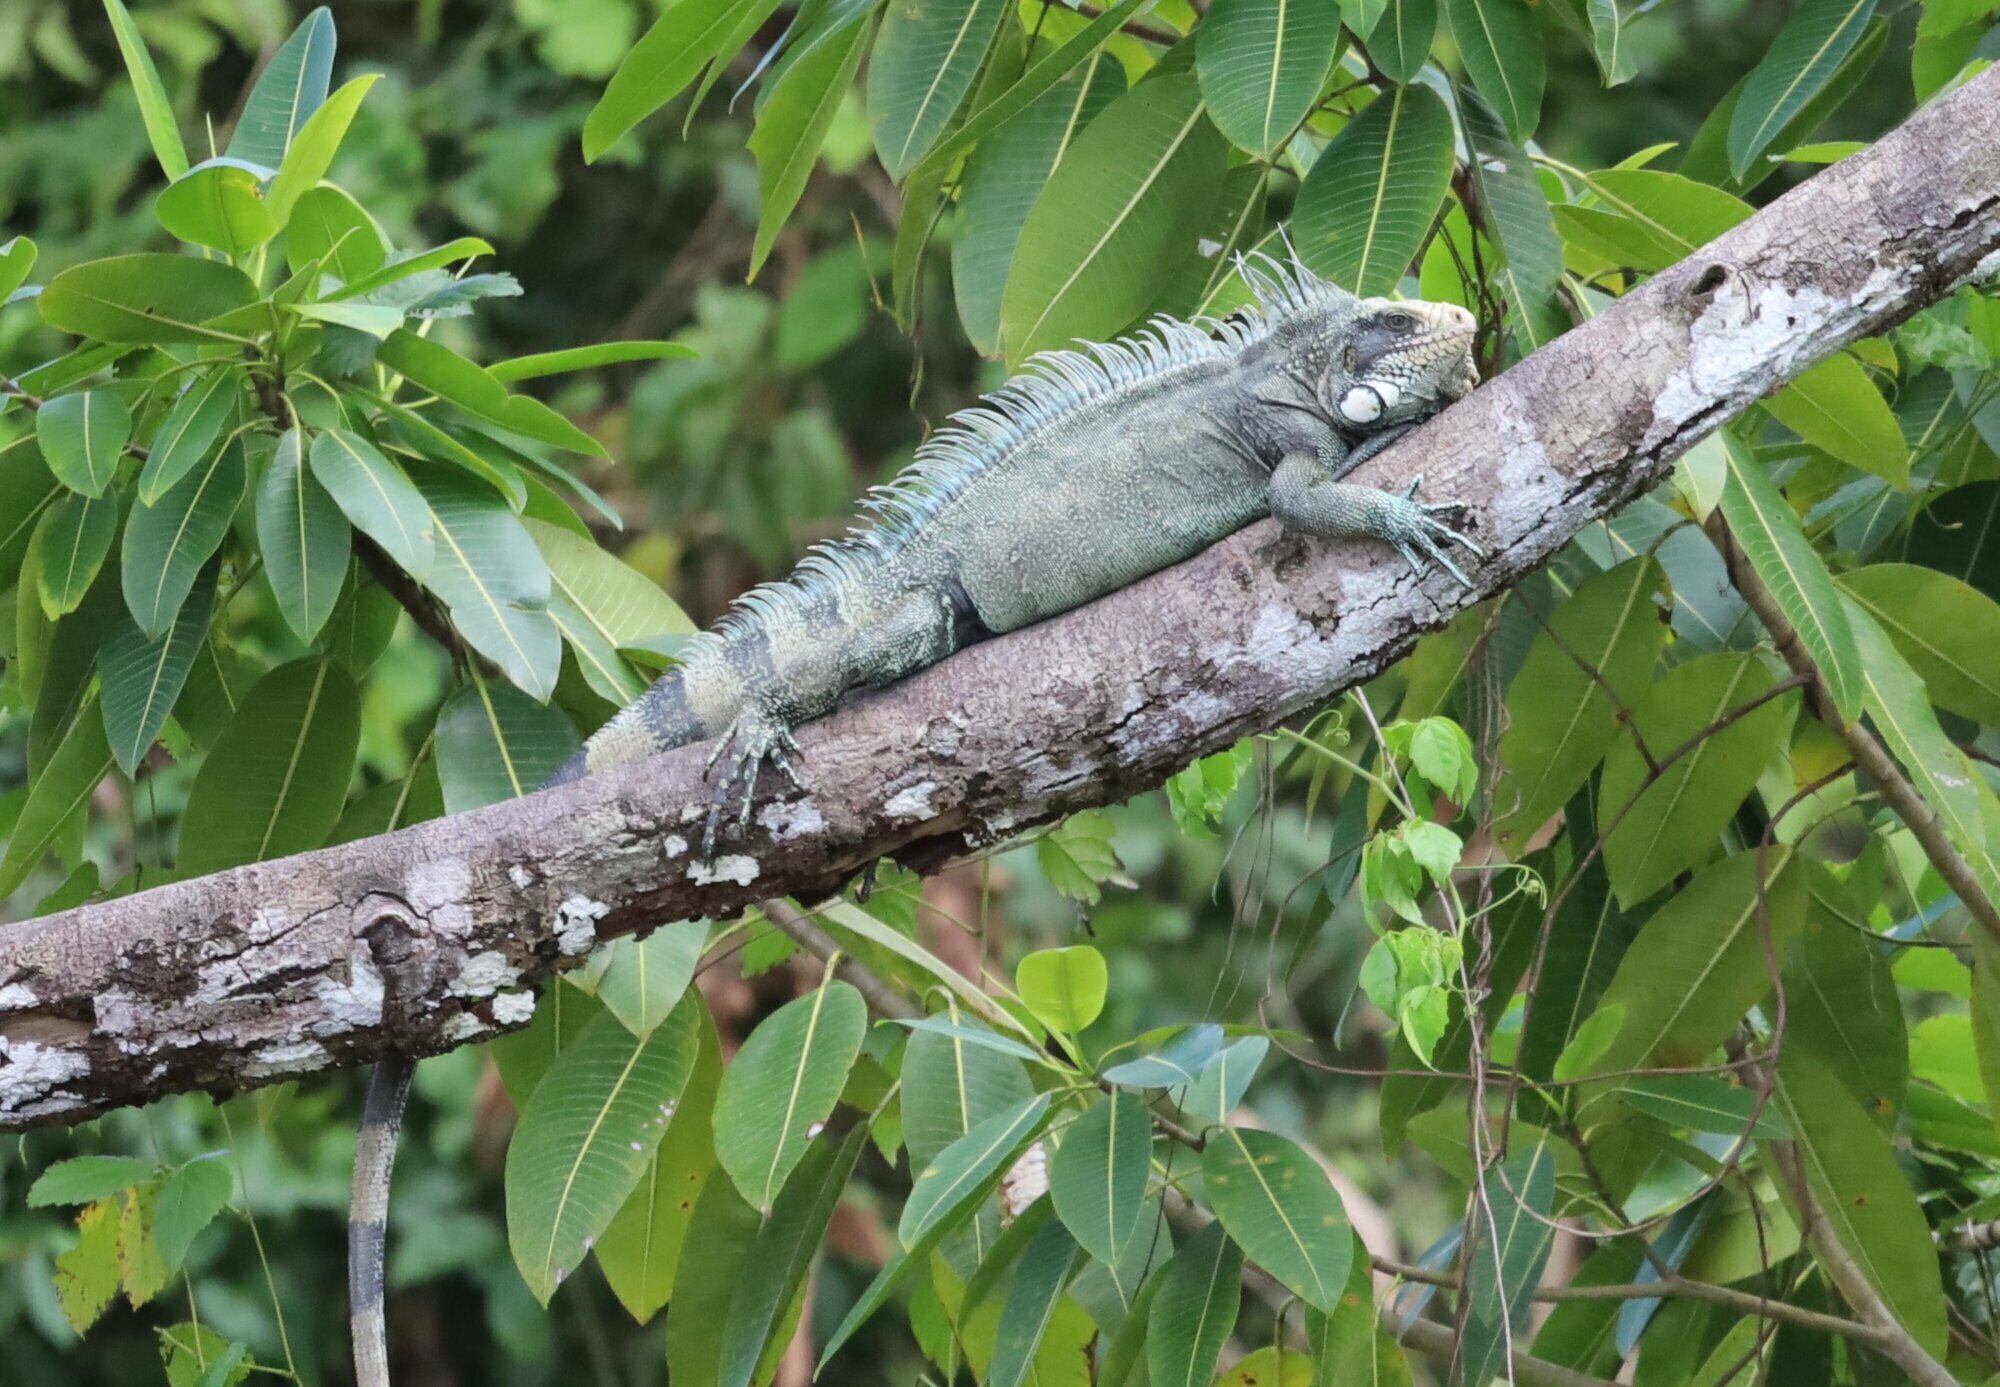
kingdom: Animalia
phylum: Chordata
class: Squamata
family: Iguanidae
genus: Iguana
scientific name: Iguana iguana
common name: Green iguana
